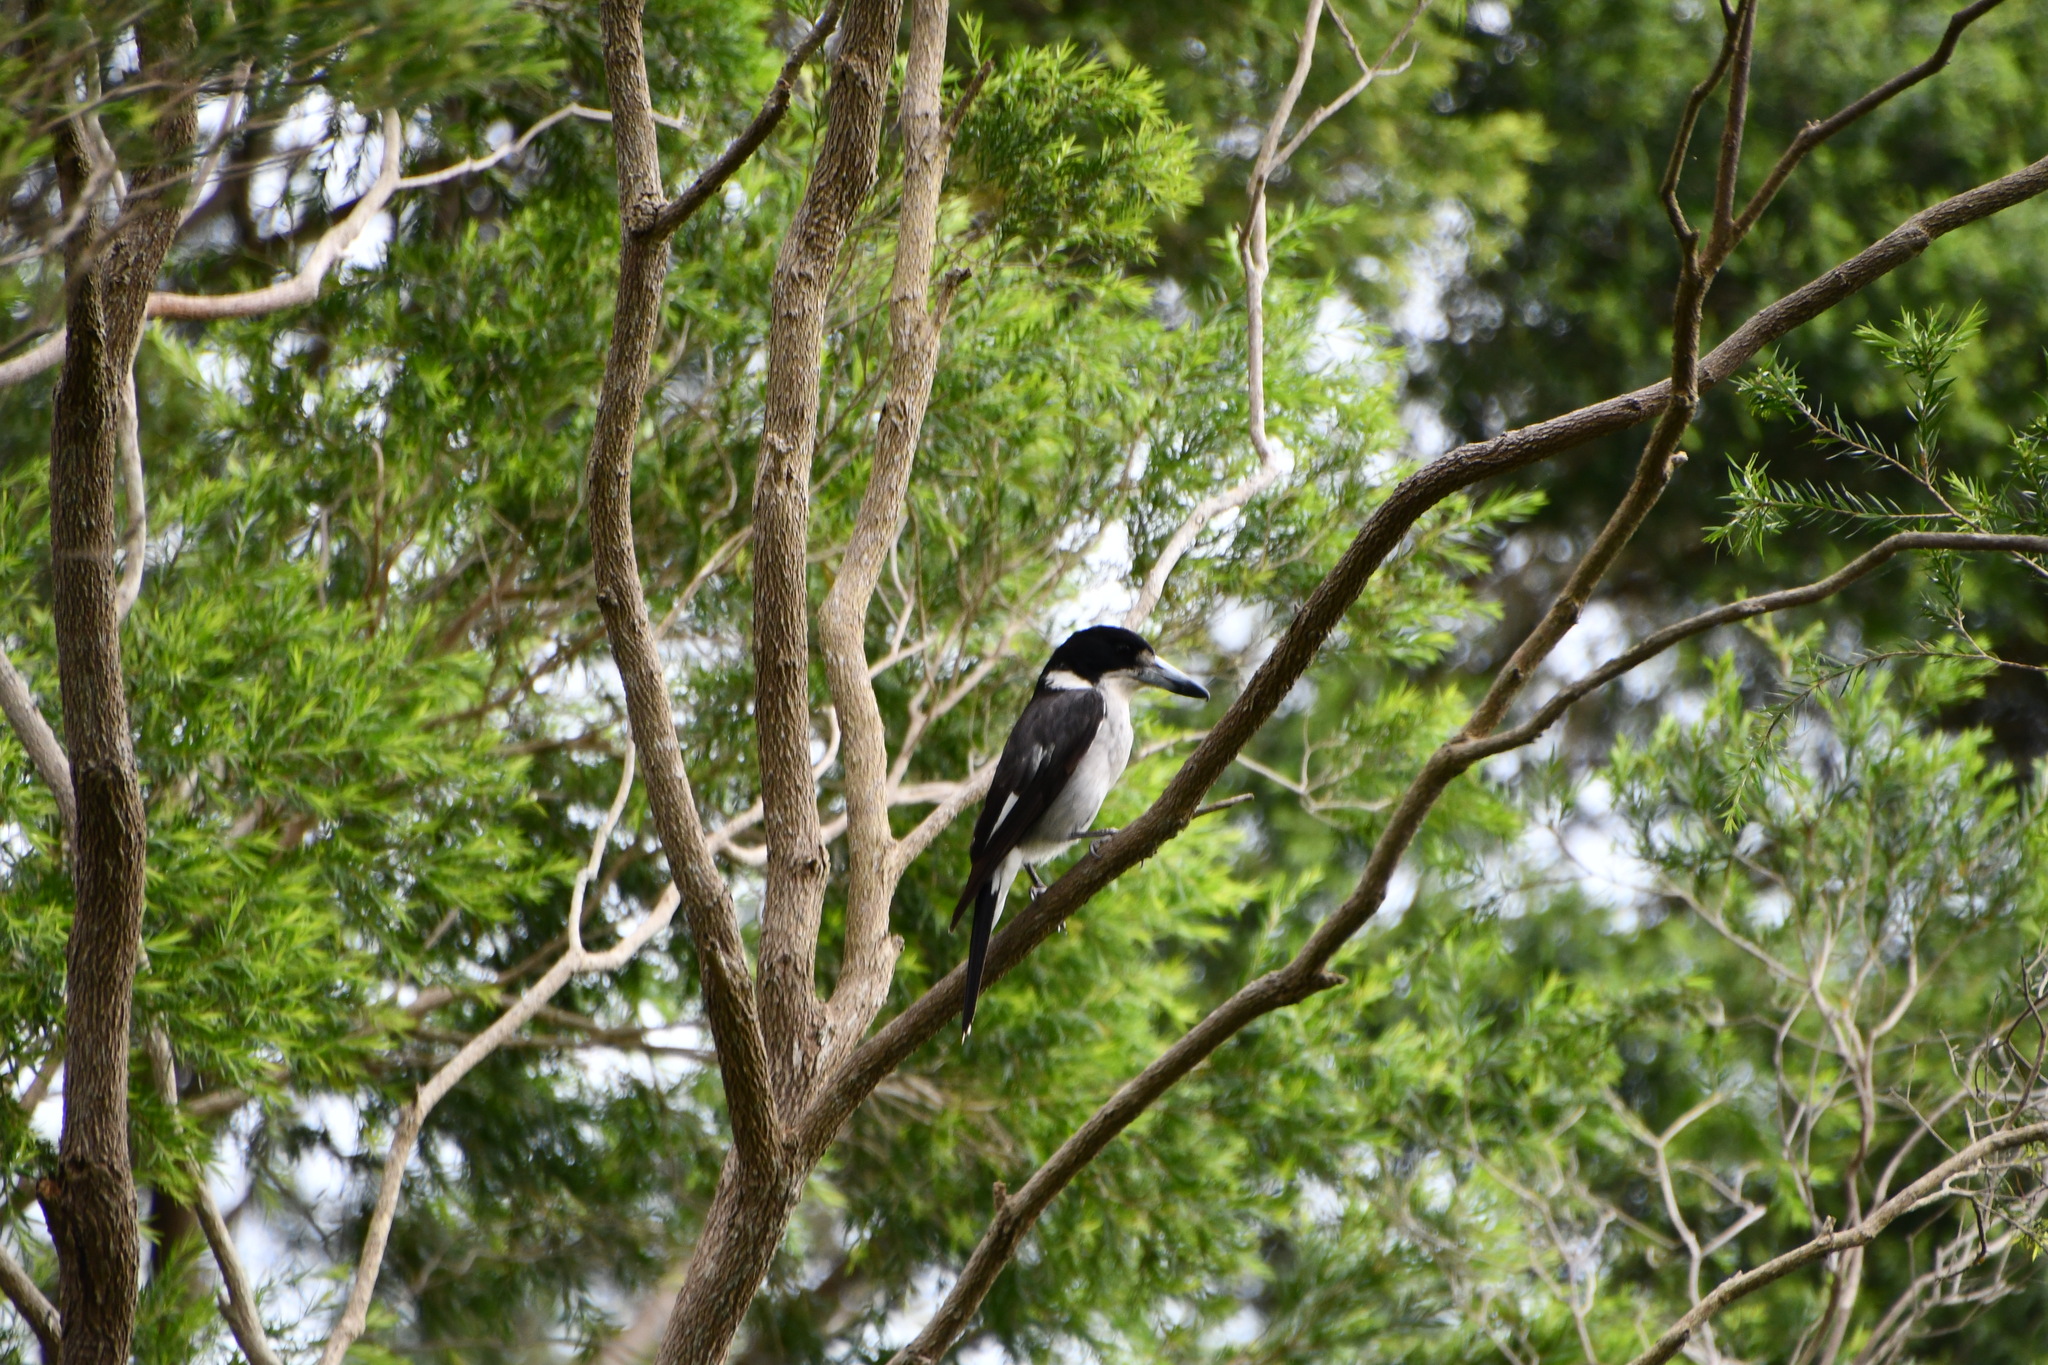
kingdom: Animalia
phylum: Chordata
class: Aves
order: Passeriformes
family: Cracticidae
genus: Cracticus
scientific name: Cracticus torquatus
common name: Grey butcherbird
